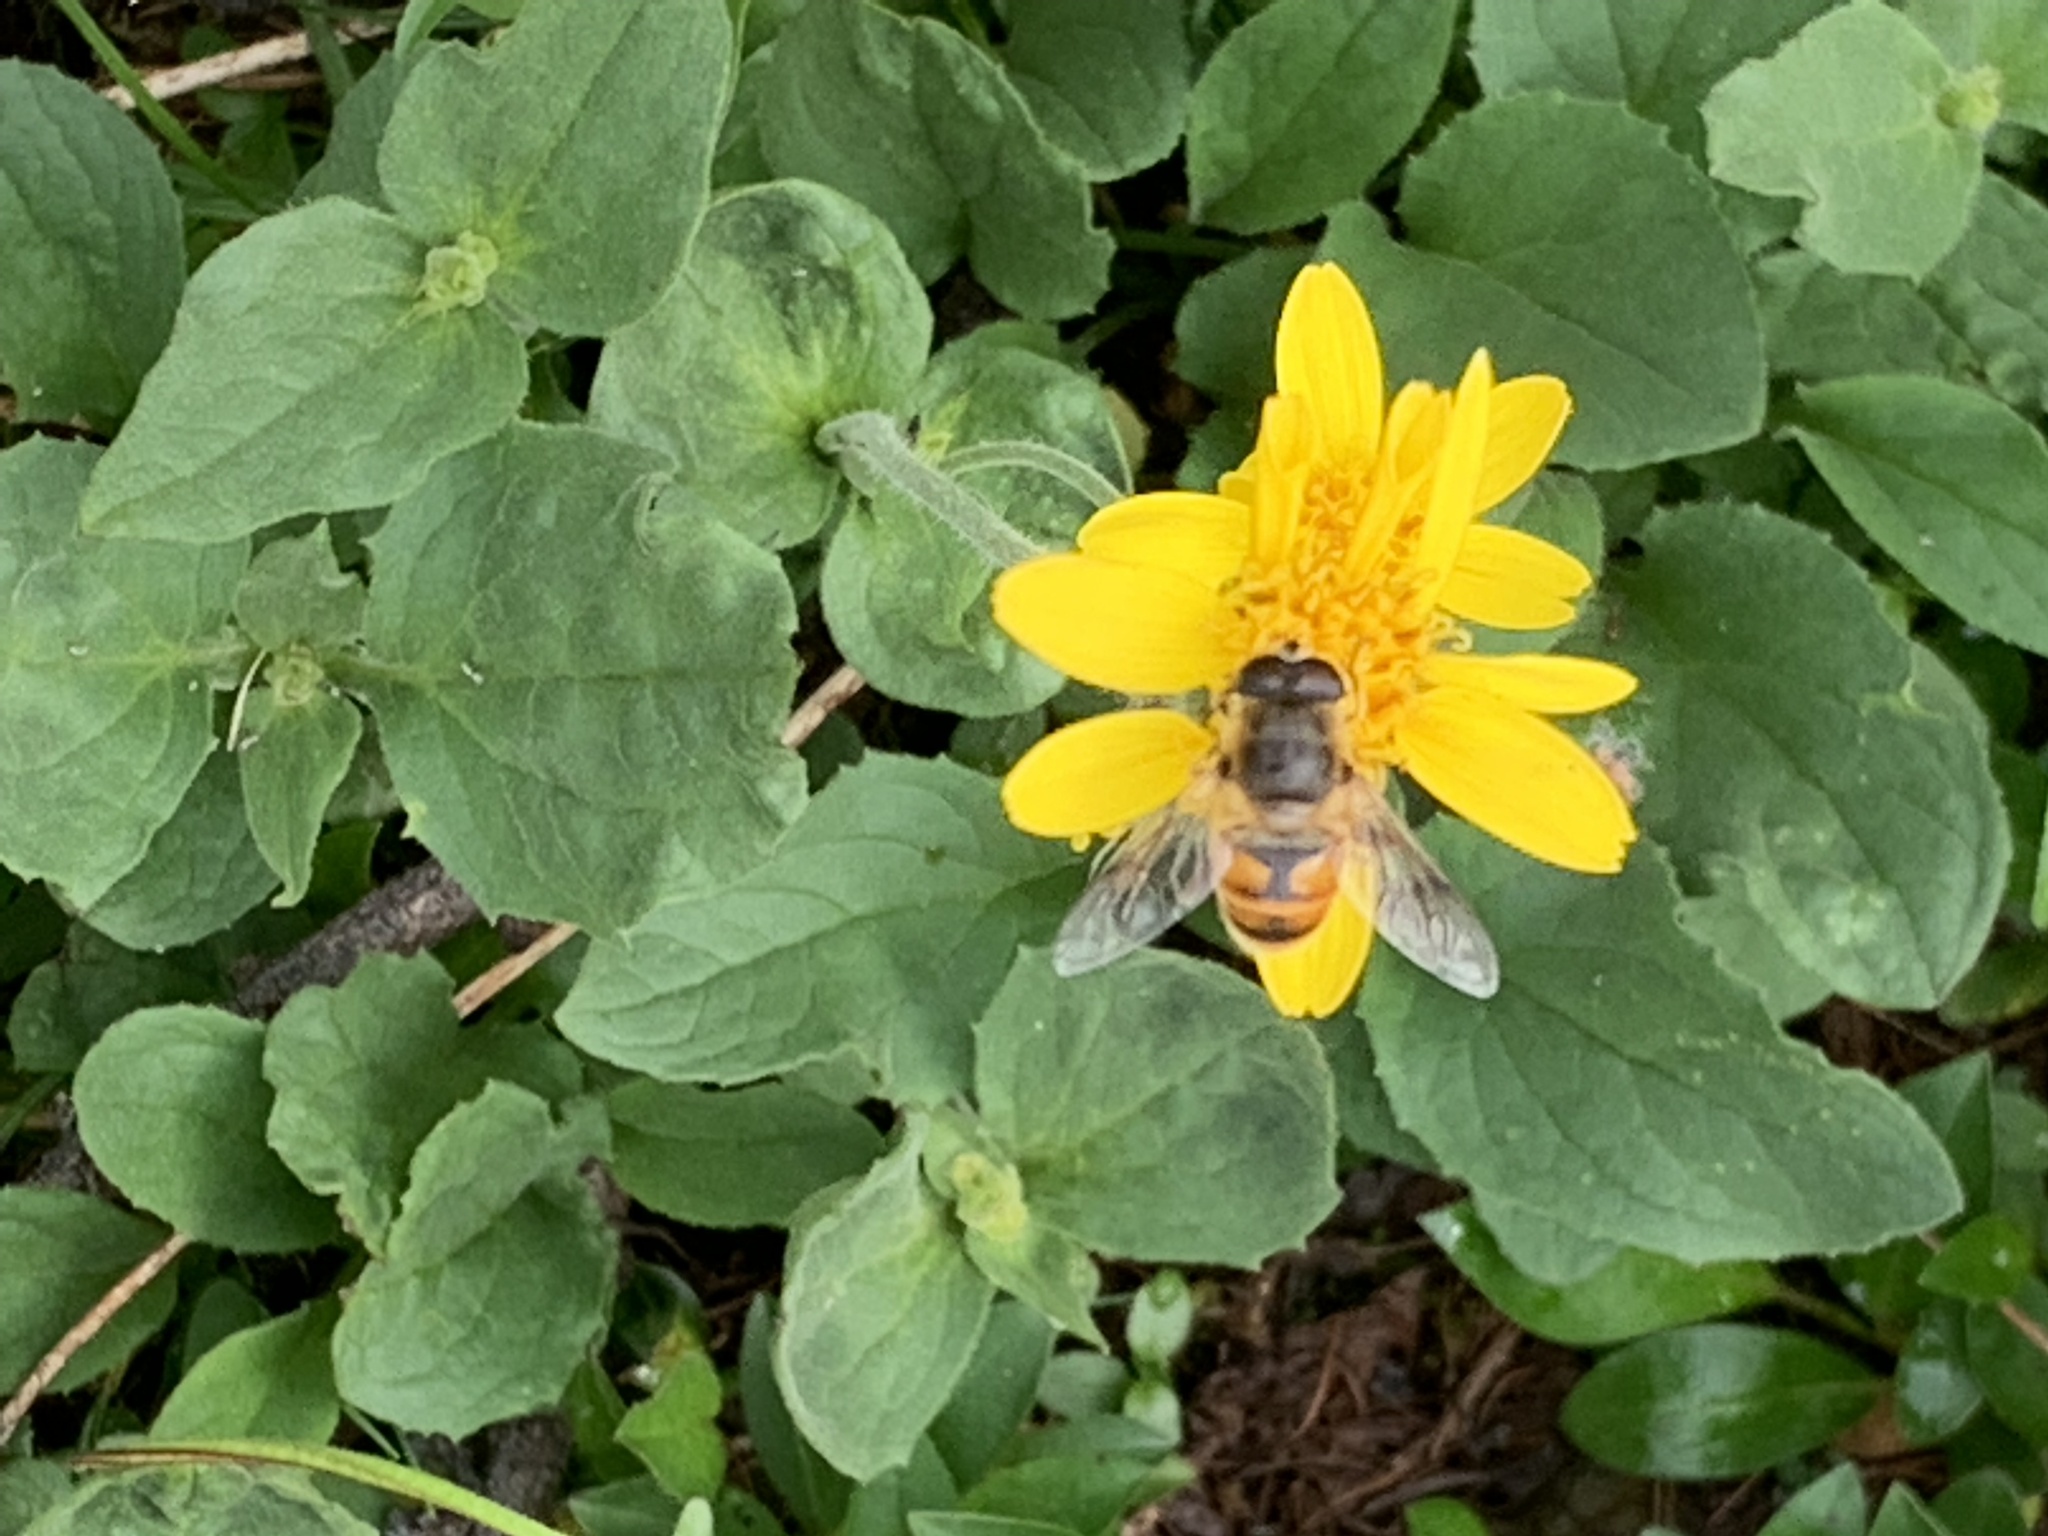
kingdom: Animalia
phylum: Arthropoda
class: Insecta
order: Diptera
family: Syrphidae
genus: Eristalis
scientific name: Eristalis tenax
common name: Drone fly
